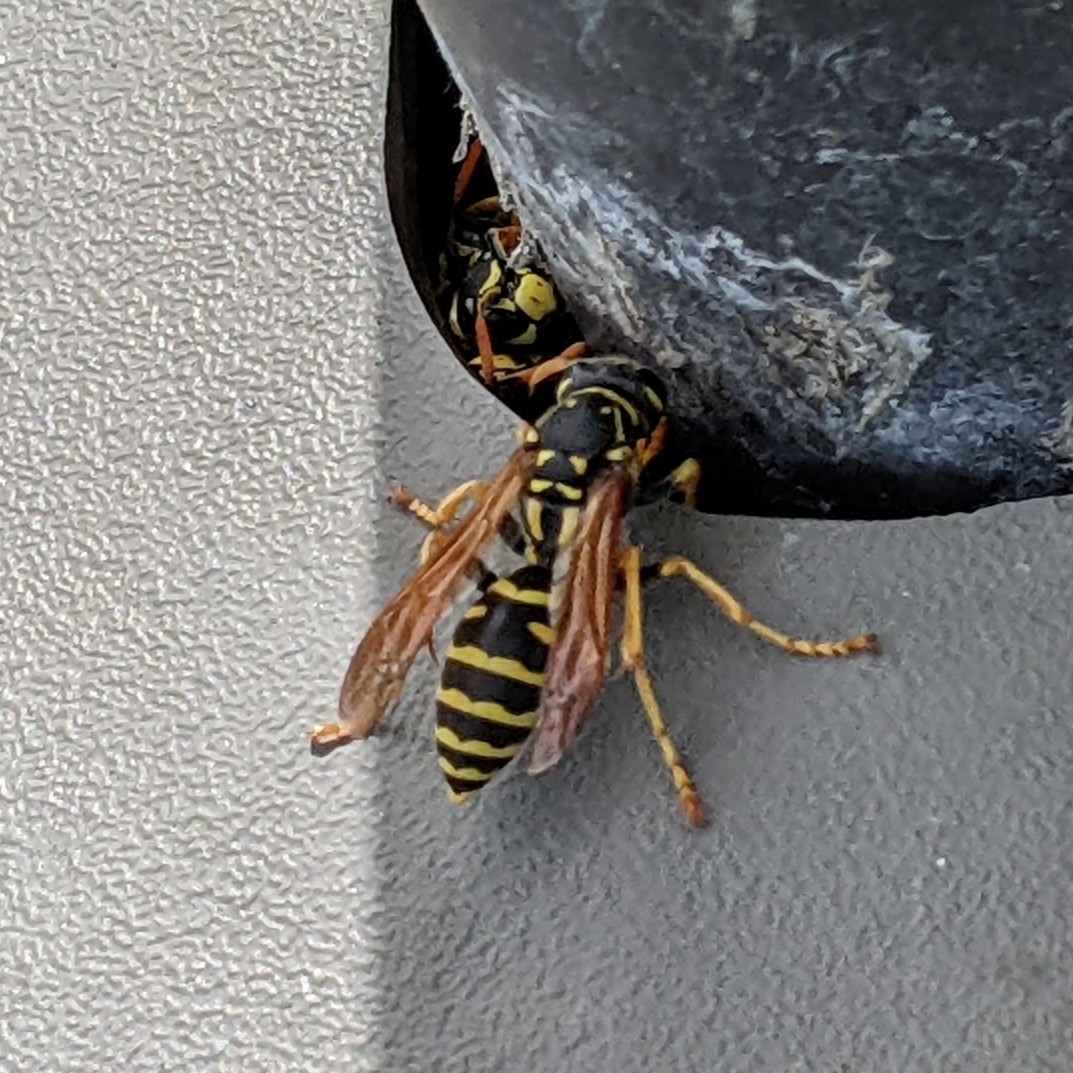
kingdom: Animalia
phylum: Arthropoda
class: Insecta
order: Hymenoptera
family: Eumenidae
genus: Polistes
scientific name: Polistes dominula
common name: Paper wasp
